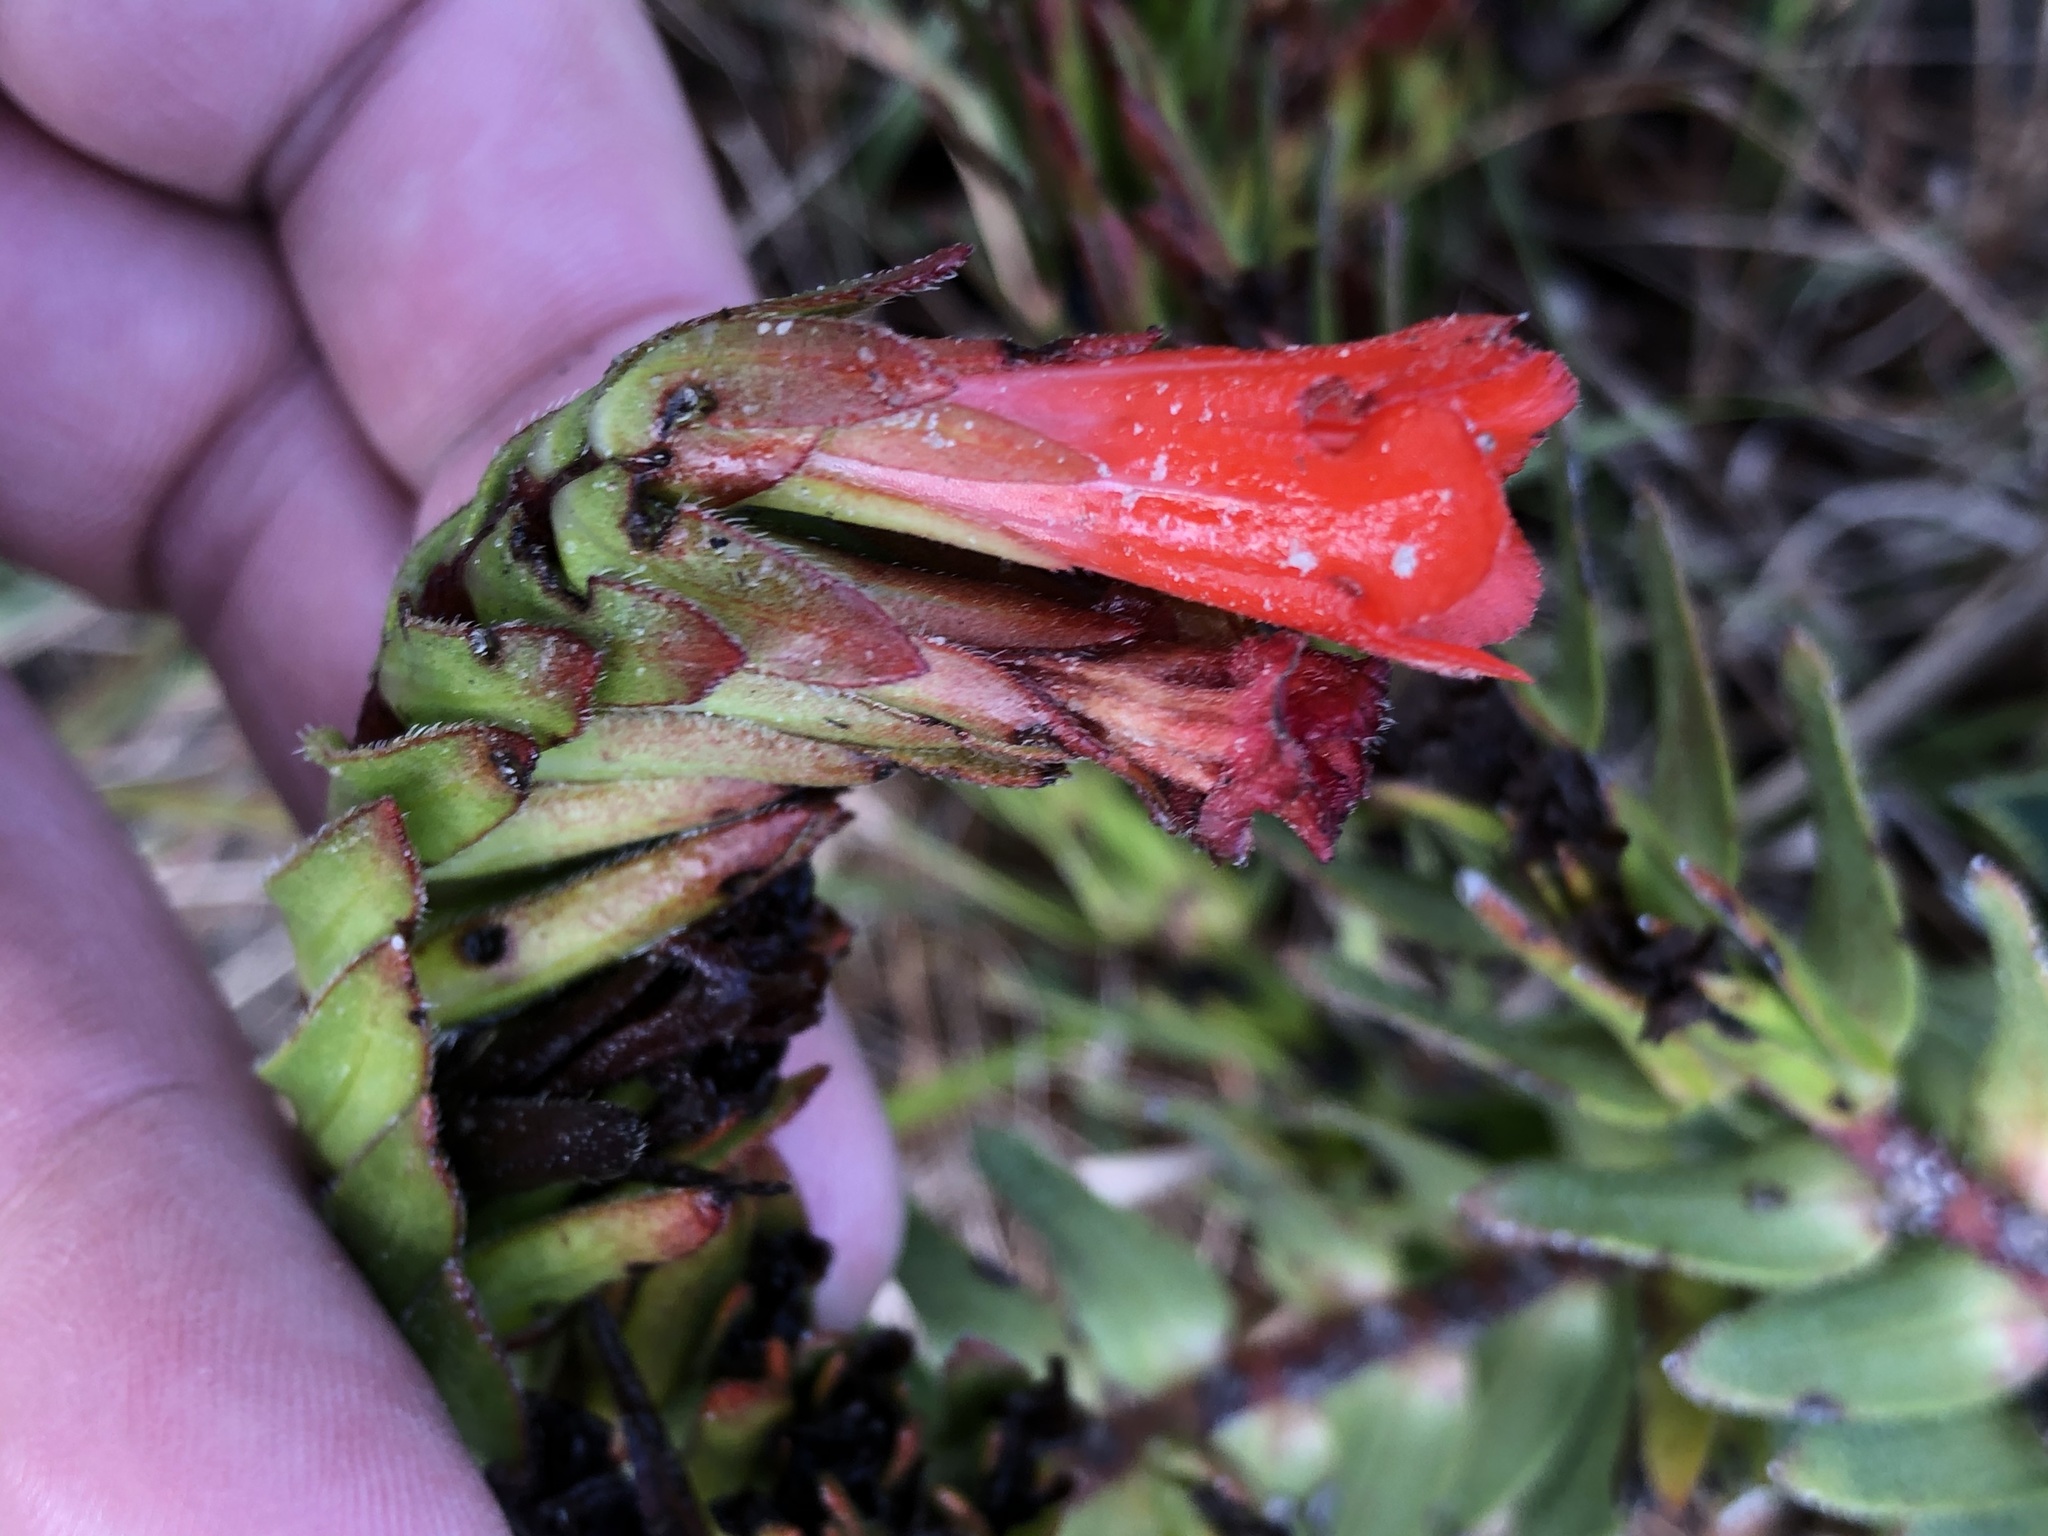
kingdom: Plantae
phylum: Tracheophyta
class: Magnoliopsida
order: Boraginales
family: Boraginaceae
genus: Lobostemon
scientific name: Lobostemon sanguineus
